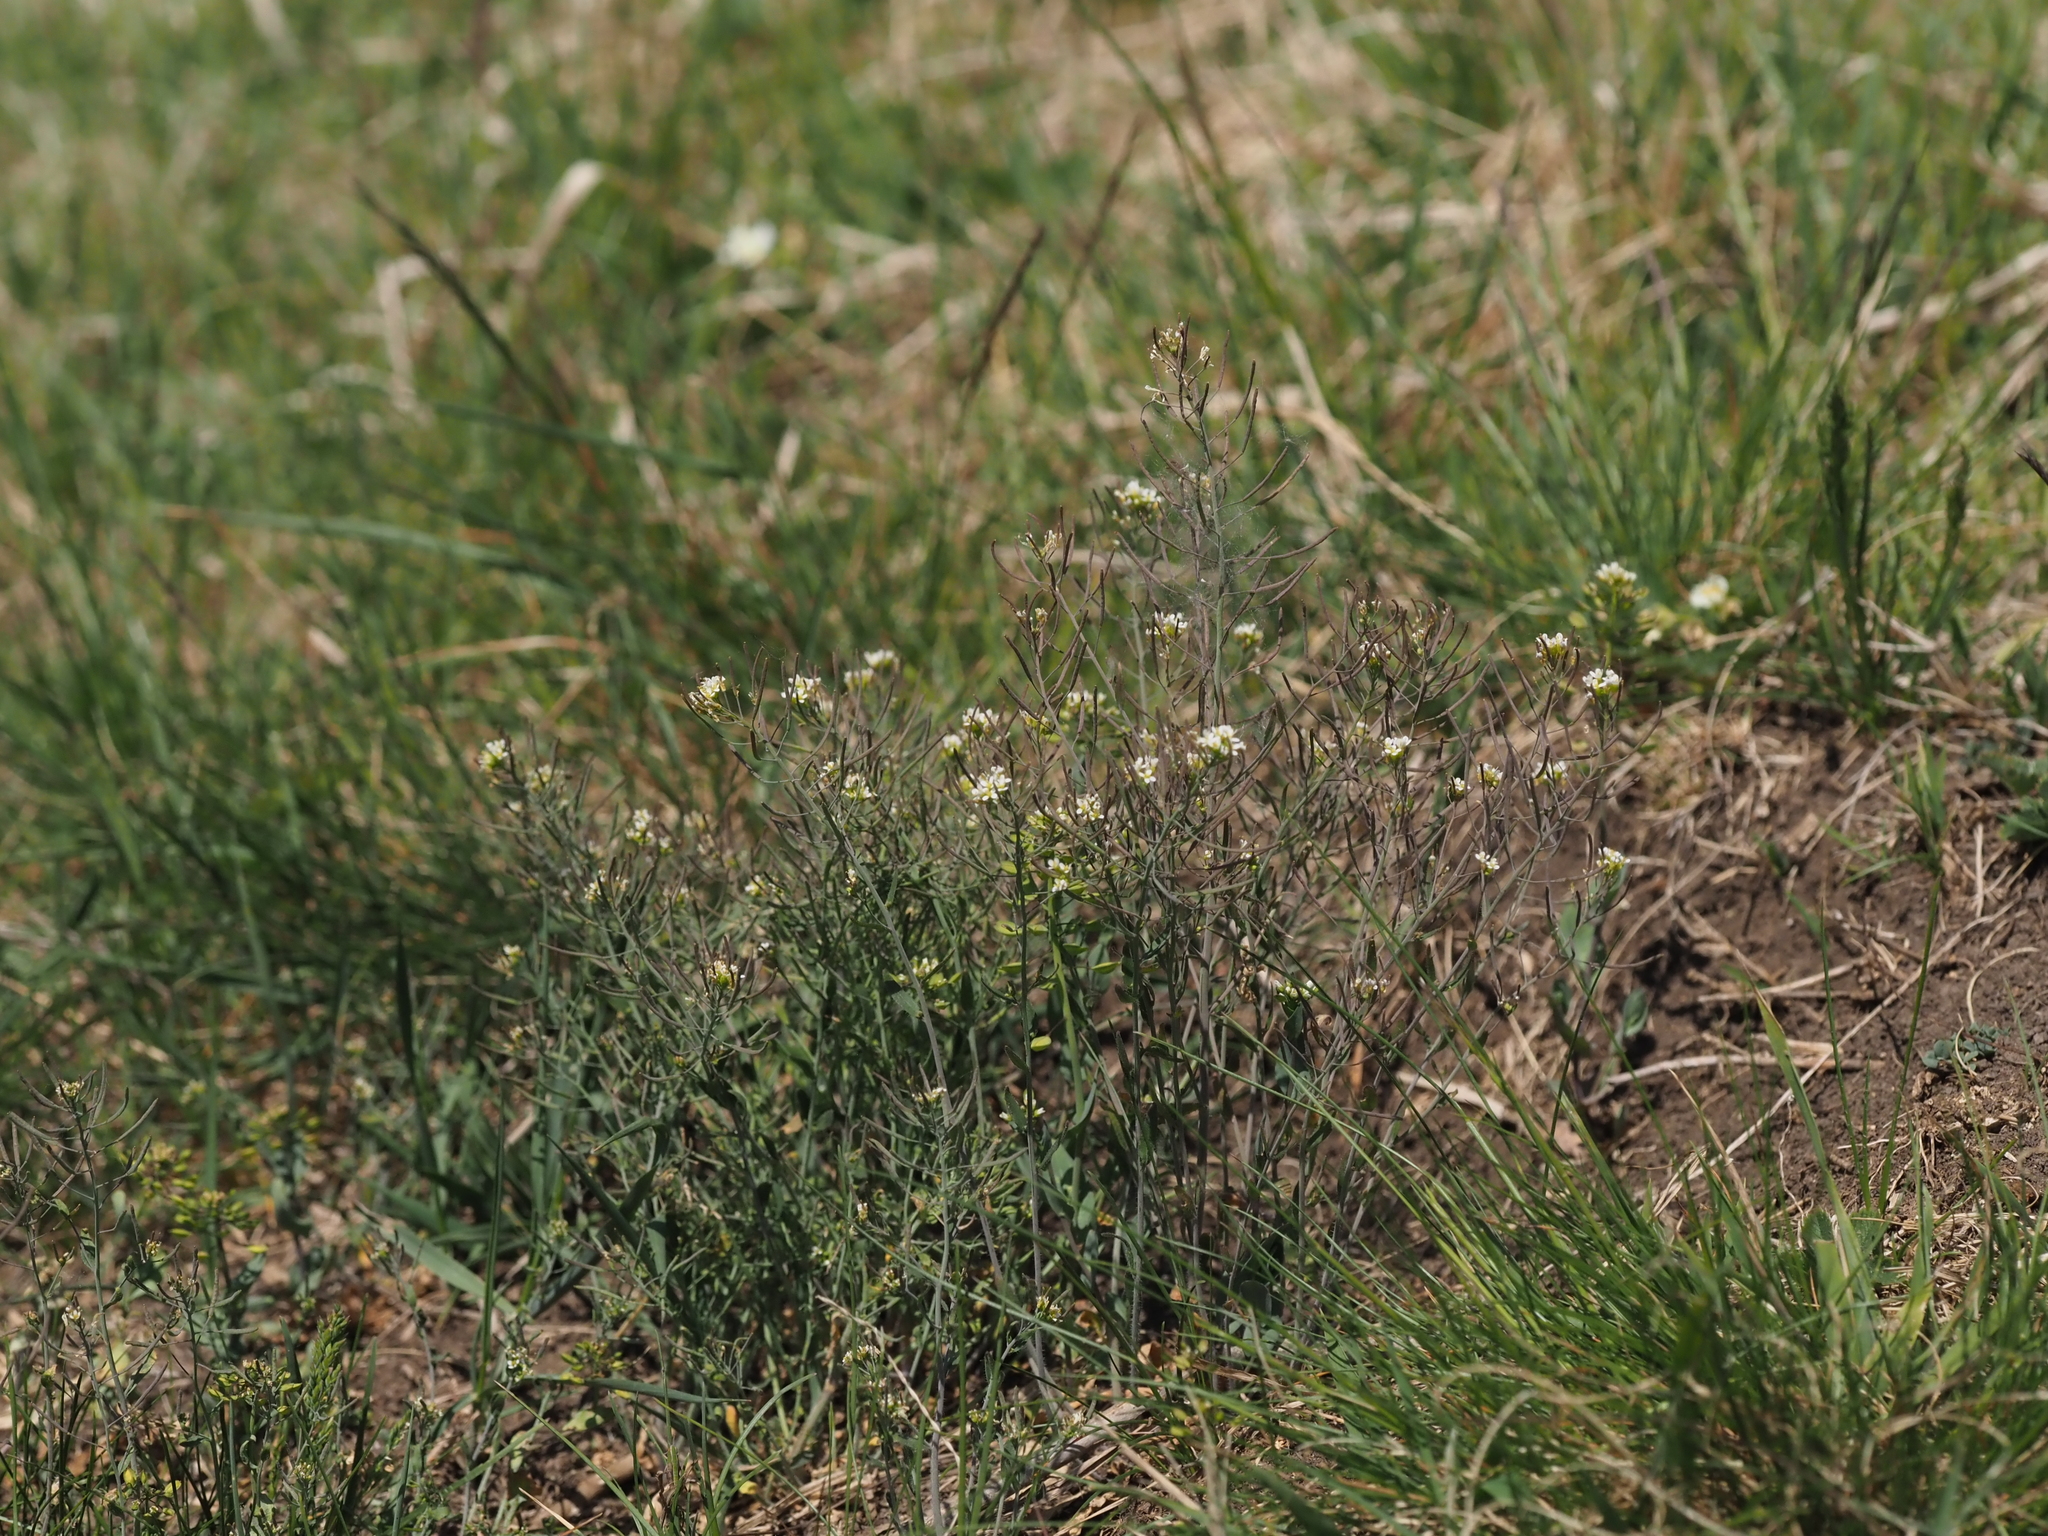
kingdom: Plantae
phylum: Tracheophyta
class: Magnoliopsida
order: Brassicales
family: Brassicaceae
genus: Arabidopsis
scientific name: Arabidopsis thaliana
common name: Thale cress
